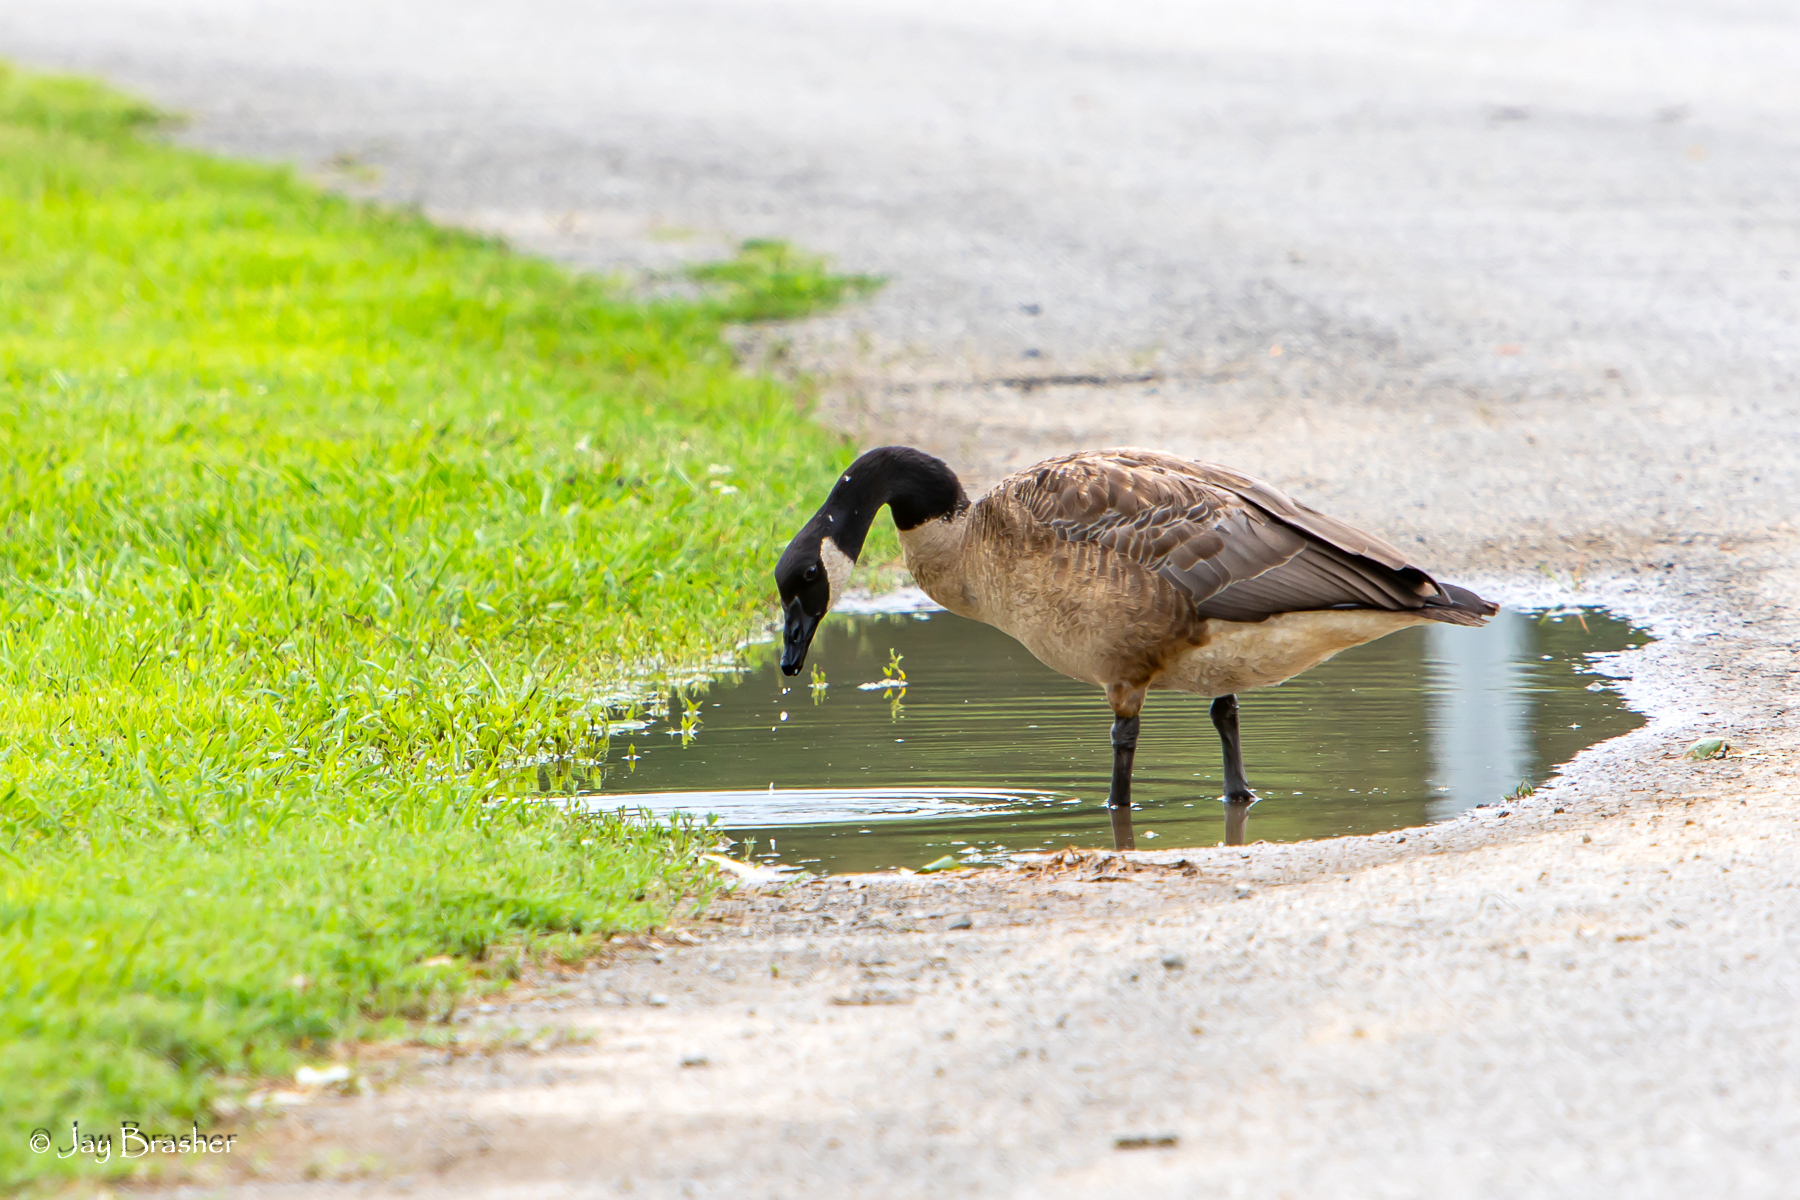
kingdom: Animalia
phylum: Chordata
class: Aves
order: Anseriformes
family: Anatidae
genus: Branta
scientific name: Branta canadensis
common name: Canada goose
